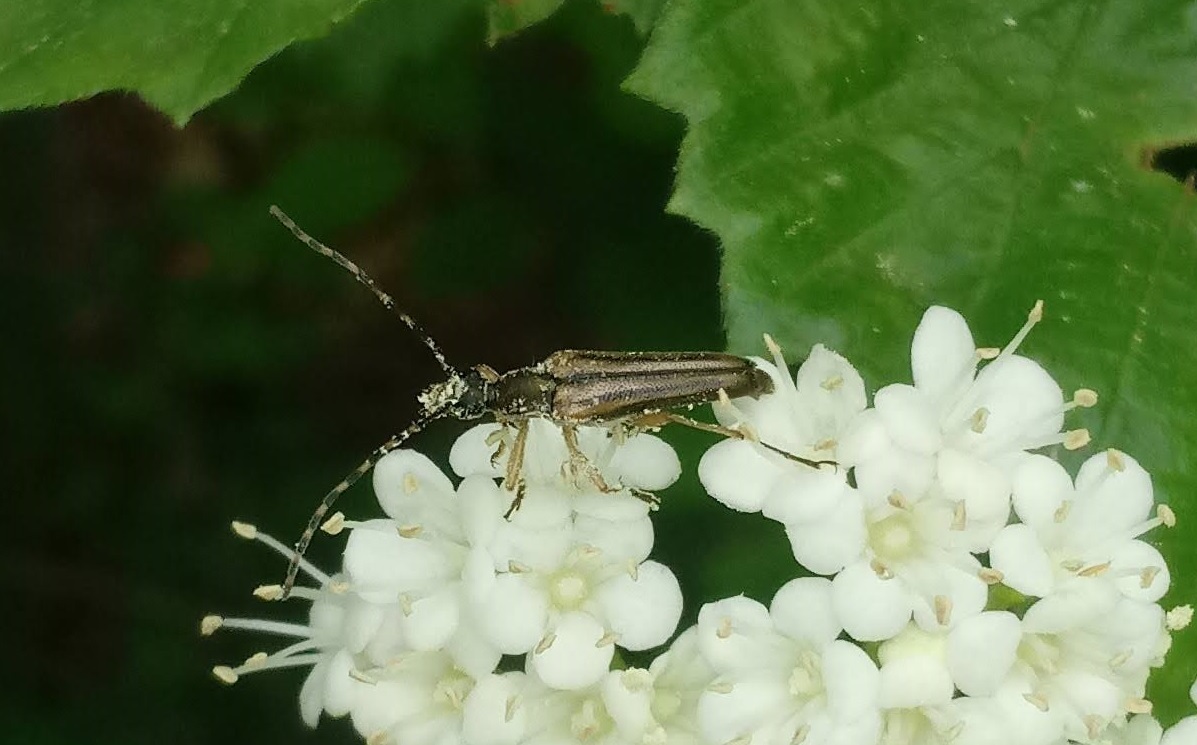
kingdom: Animalia
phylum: Arthropoda
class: Insecta
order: Coleoptera
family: Cerambycidae
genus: Analeptura
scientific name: Analeptura lineola
